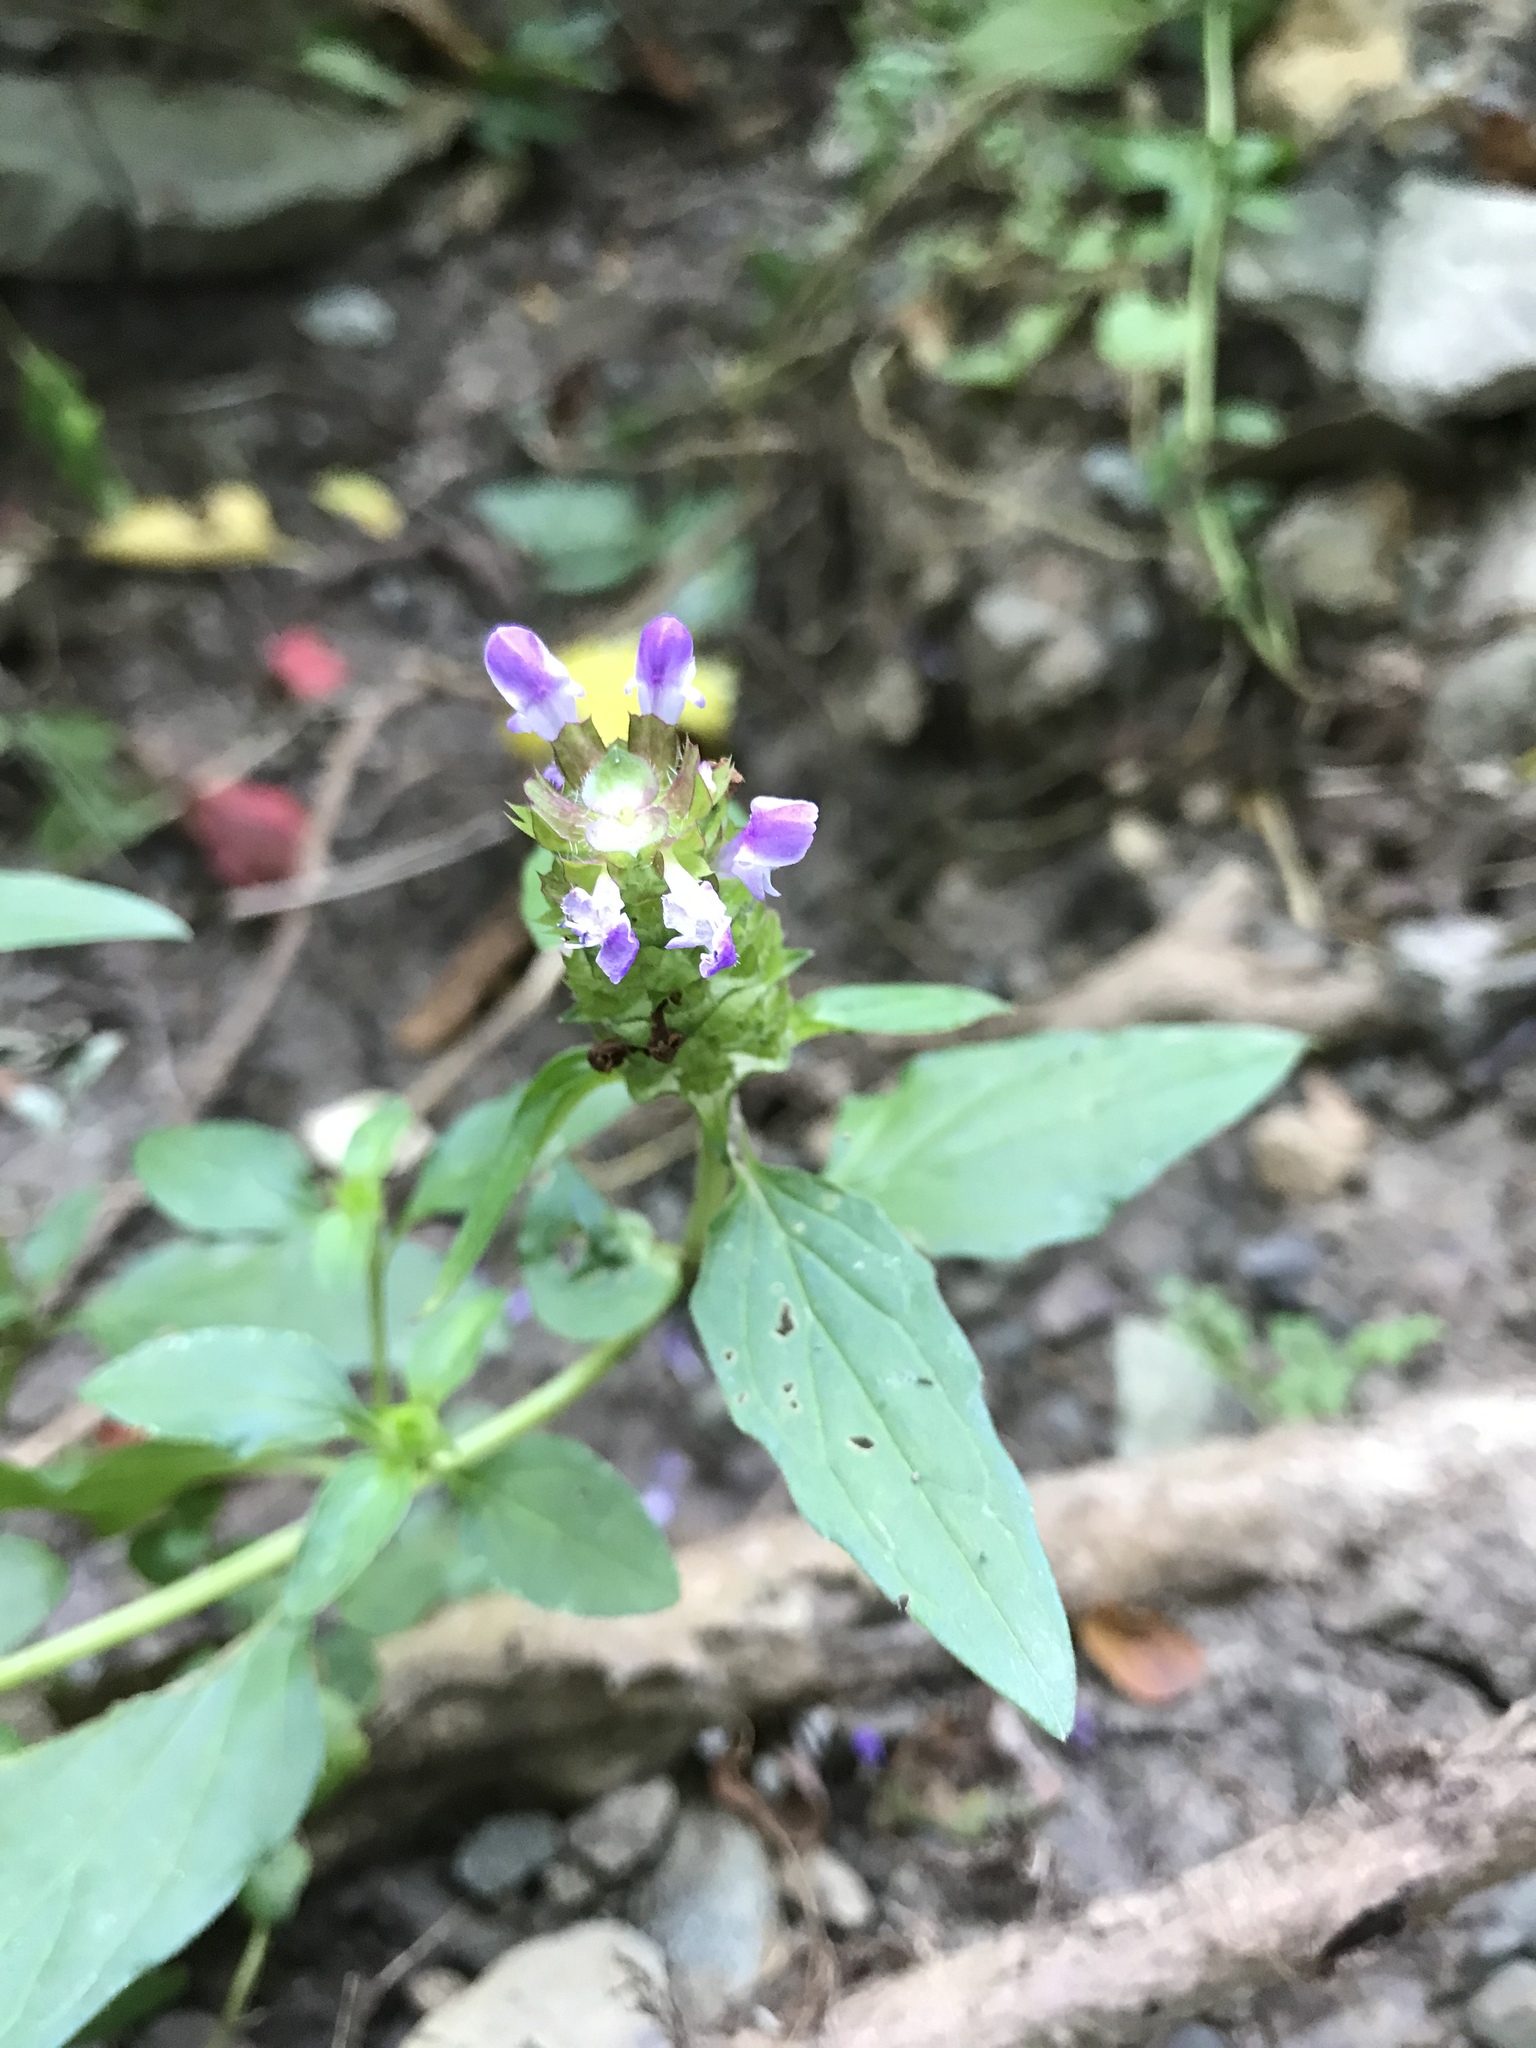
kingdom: Plantae
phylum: Tracheophyta
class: Magnoliopsida
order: Lamiales
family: Lamiaceae
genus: Prunella
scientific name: Prunella vulgaris
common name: Heal-all
